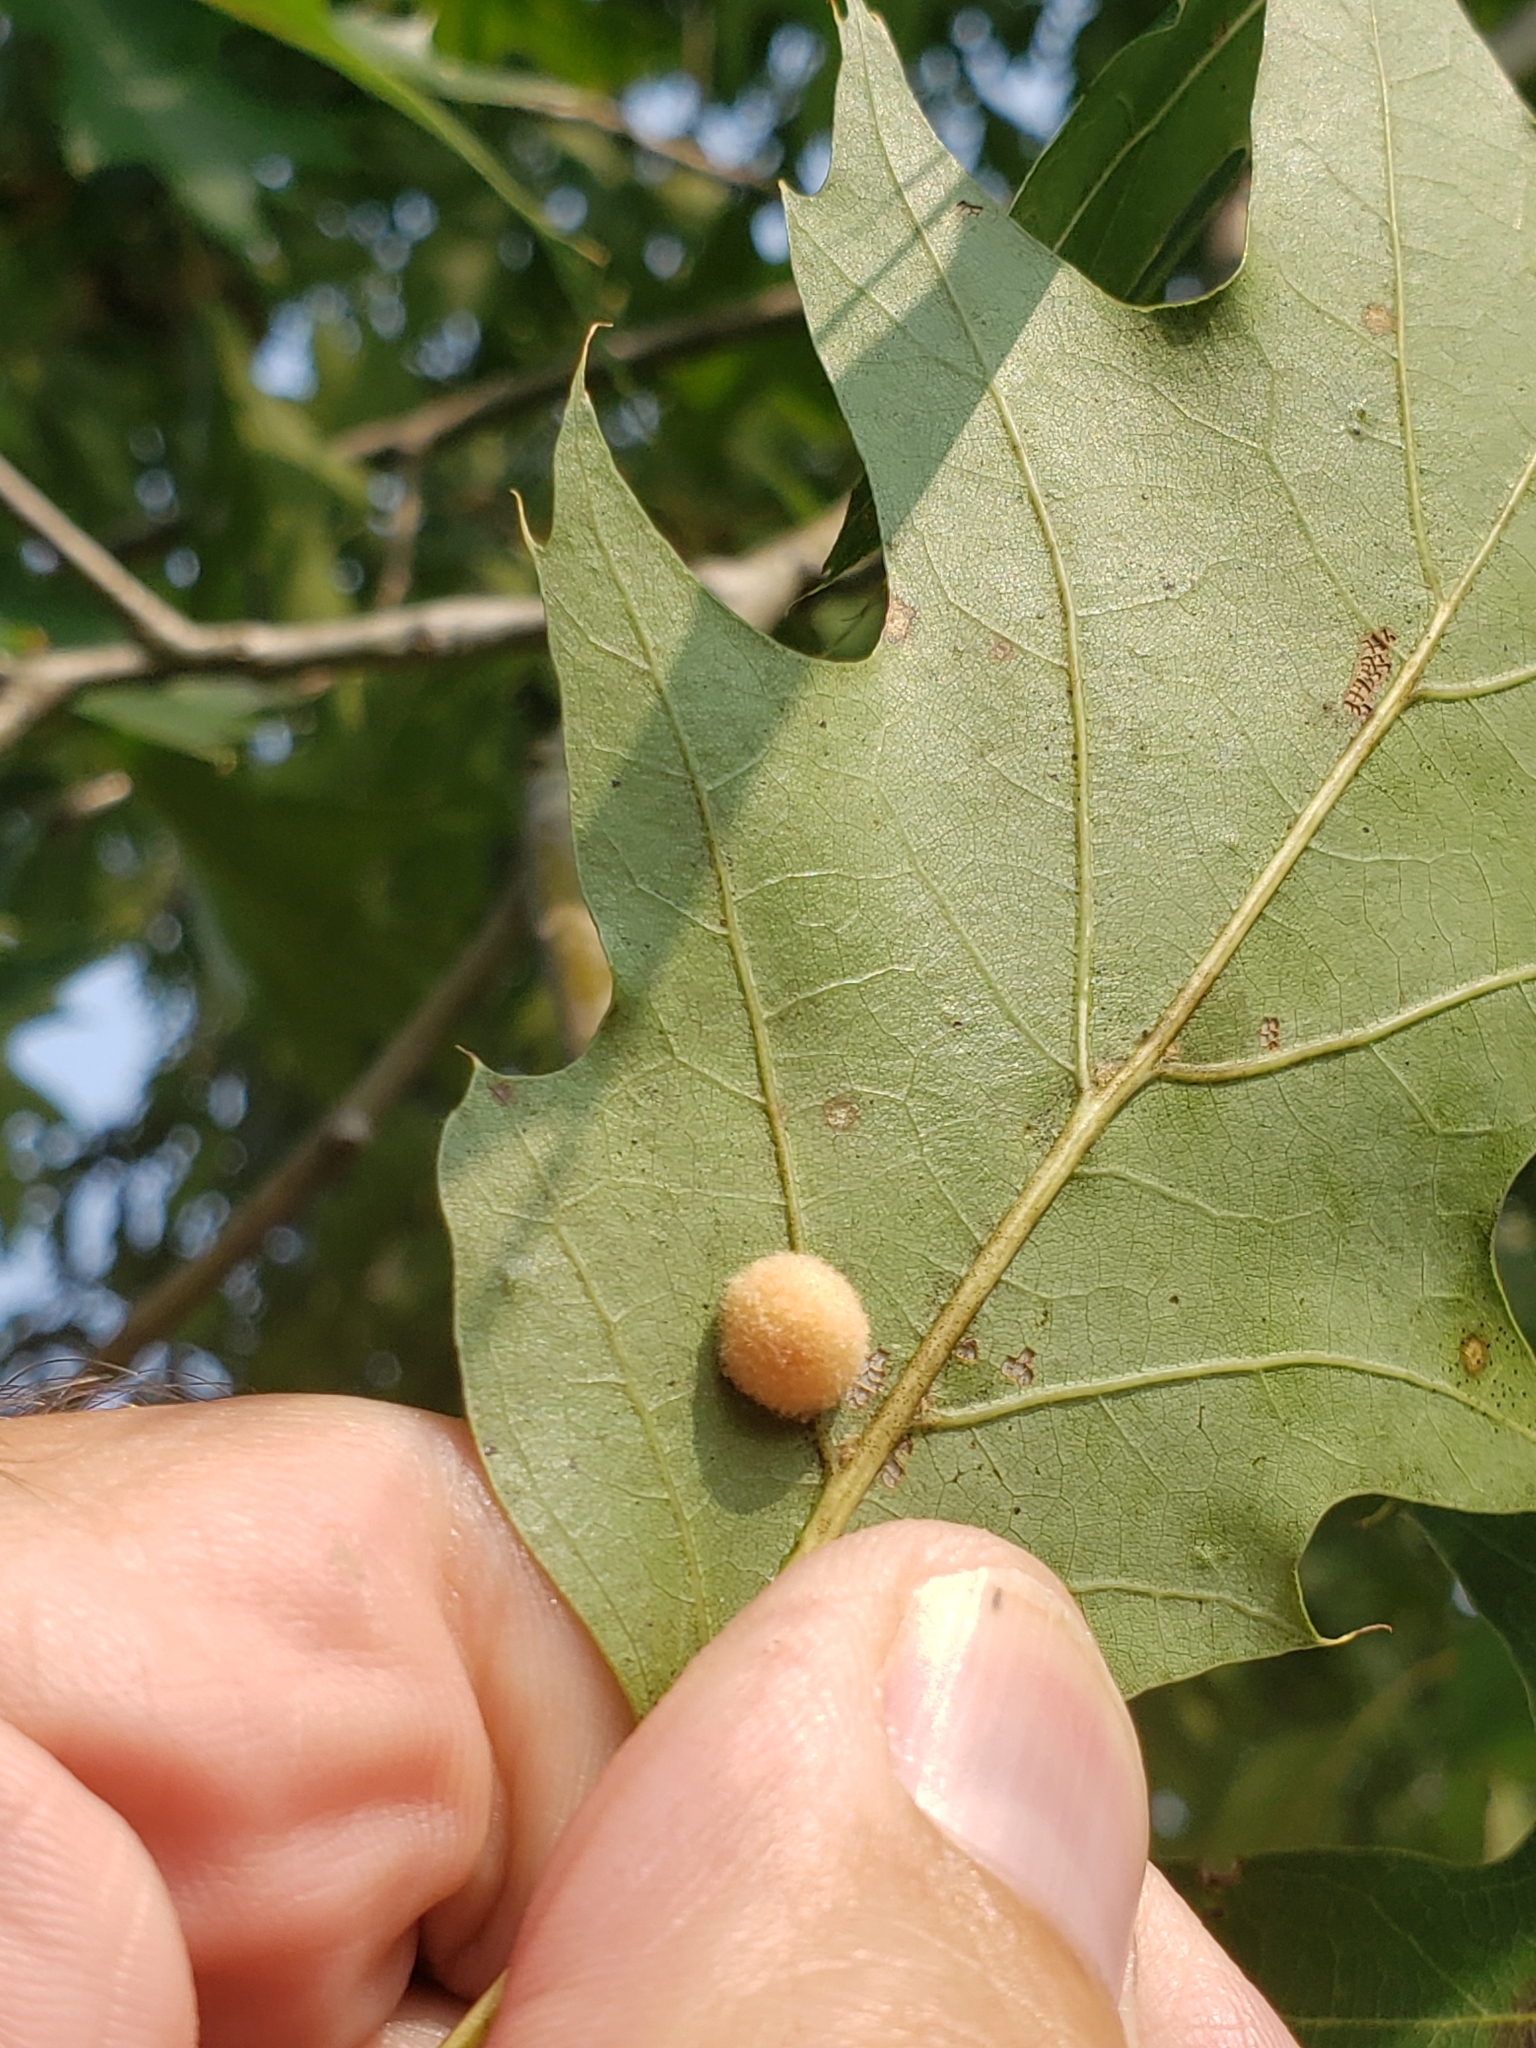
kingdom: Animalia
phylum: Arthropoda
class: Insecta
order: Hymenoptera
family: Cynipidae
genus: Callirhytis
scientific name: Callirhytis
